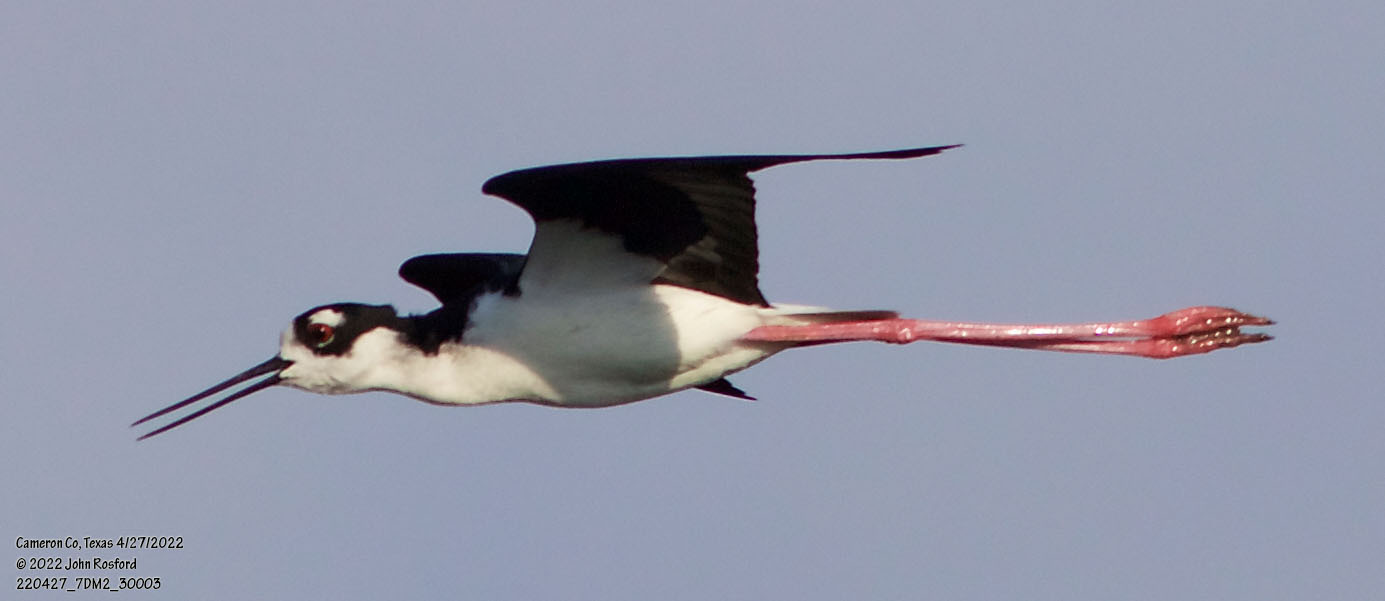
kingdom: Animalia
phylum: Chordata
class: Aves
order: Charadriiformes
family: Recurvirostridae
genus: Himantopus
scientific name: Himantopus mexicanus
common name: Black-necked stilt
